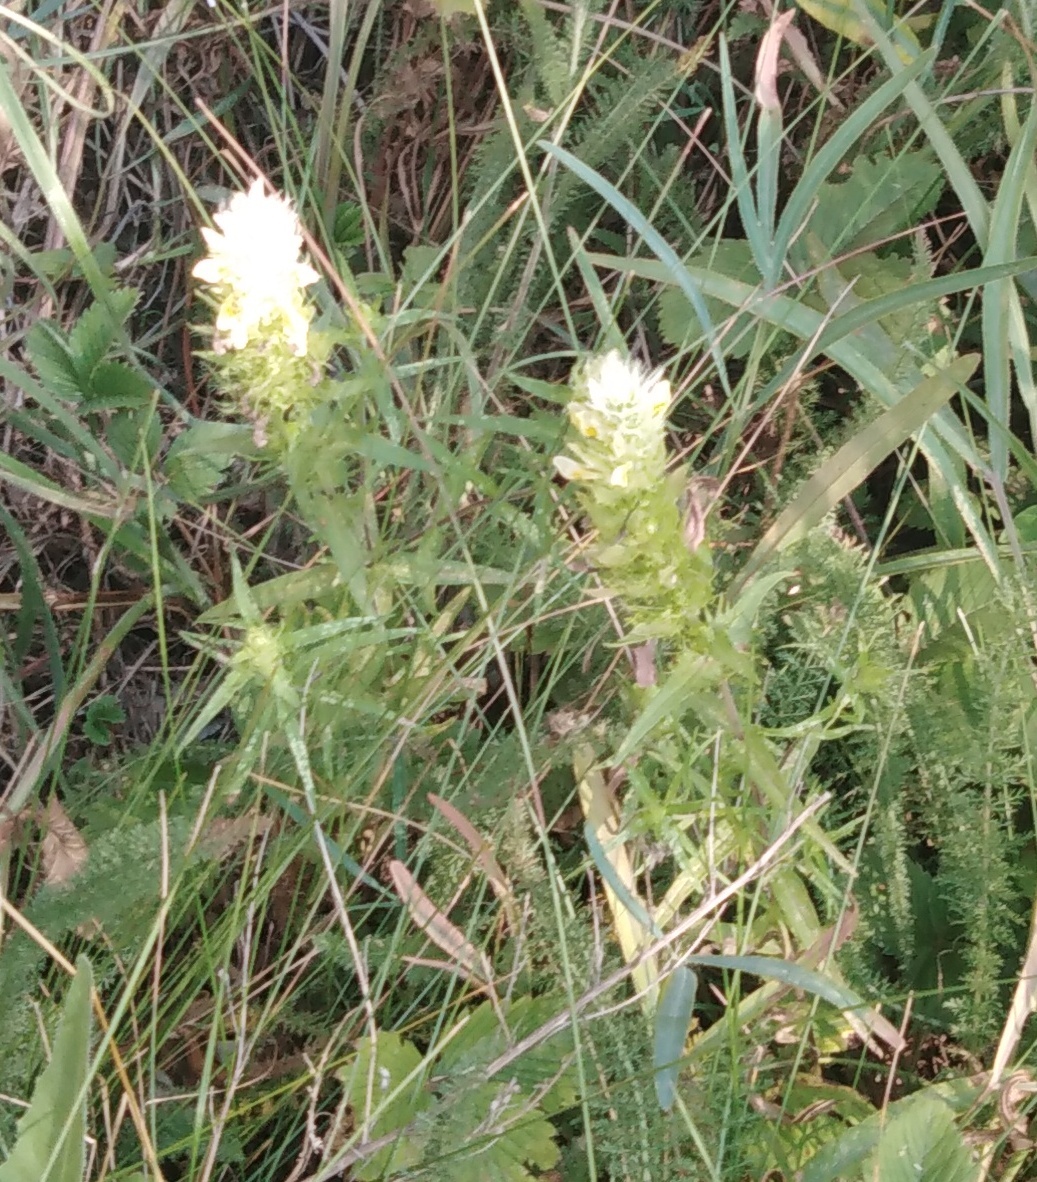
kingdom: Plantae
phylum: Tracheophyta
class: Magnoliopsida
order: Lamiales
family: Orobanchaceae
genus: Melampyrum
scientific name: Melampyrum arvense
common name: Field cow-wheat
